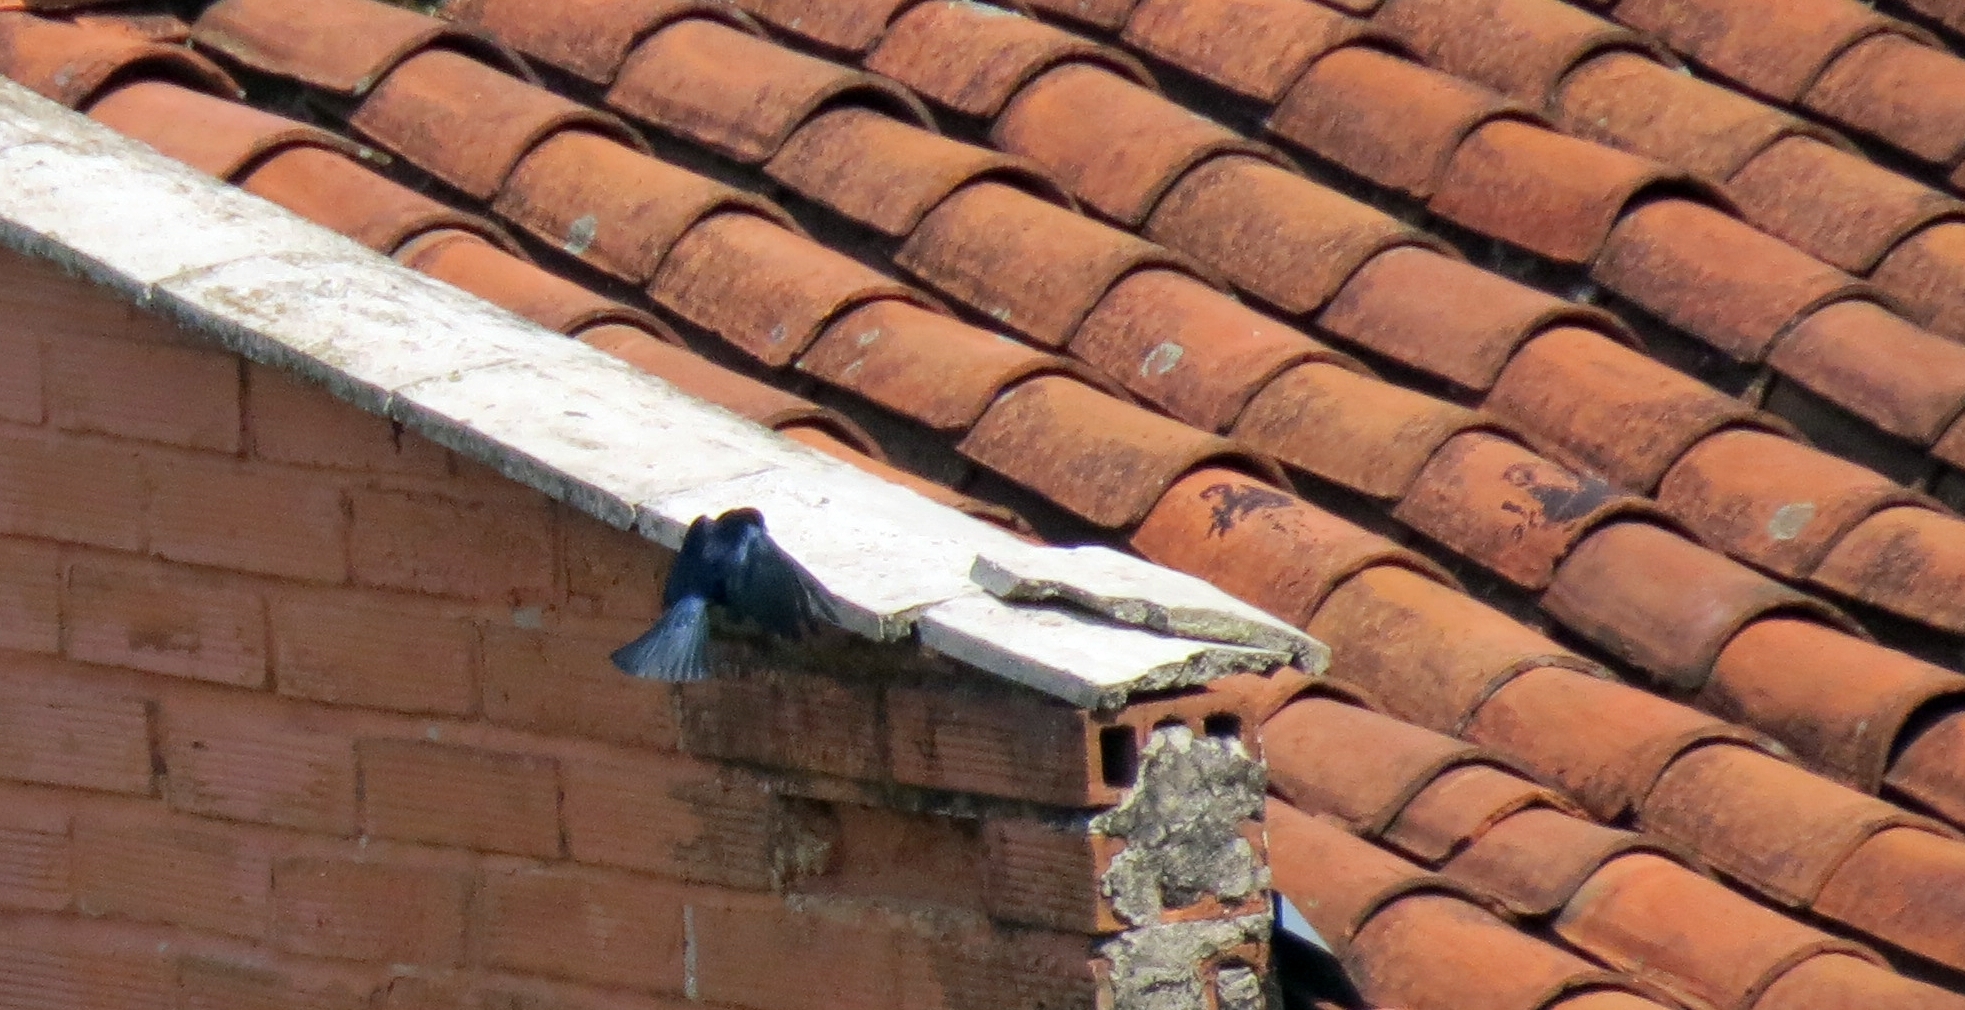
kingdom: Animalia
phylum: Chordata
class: Aves
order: Passeriformes
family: Icteridae
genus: Molothrus
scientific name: Molothrus bonariensis
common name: Shiny cowbird
